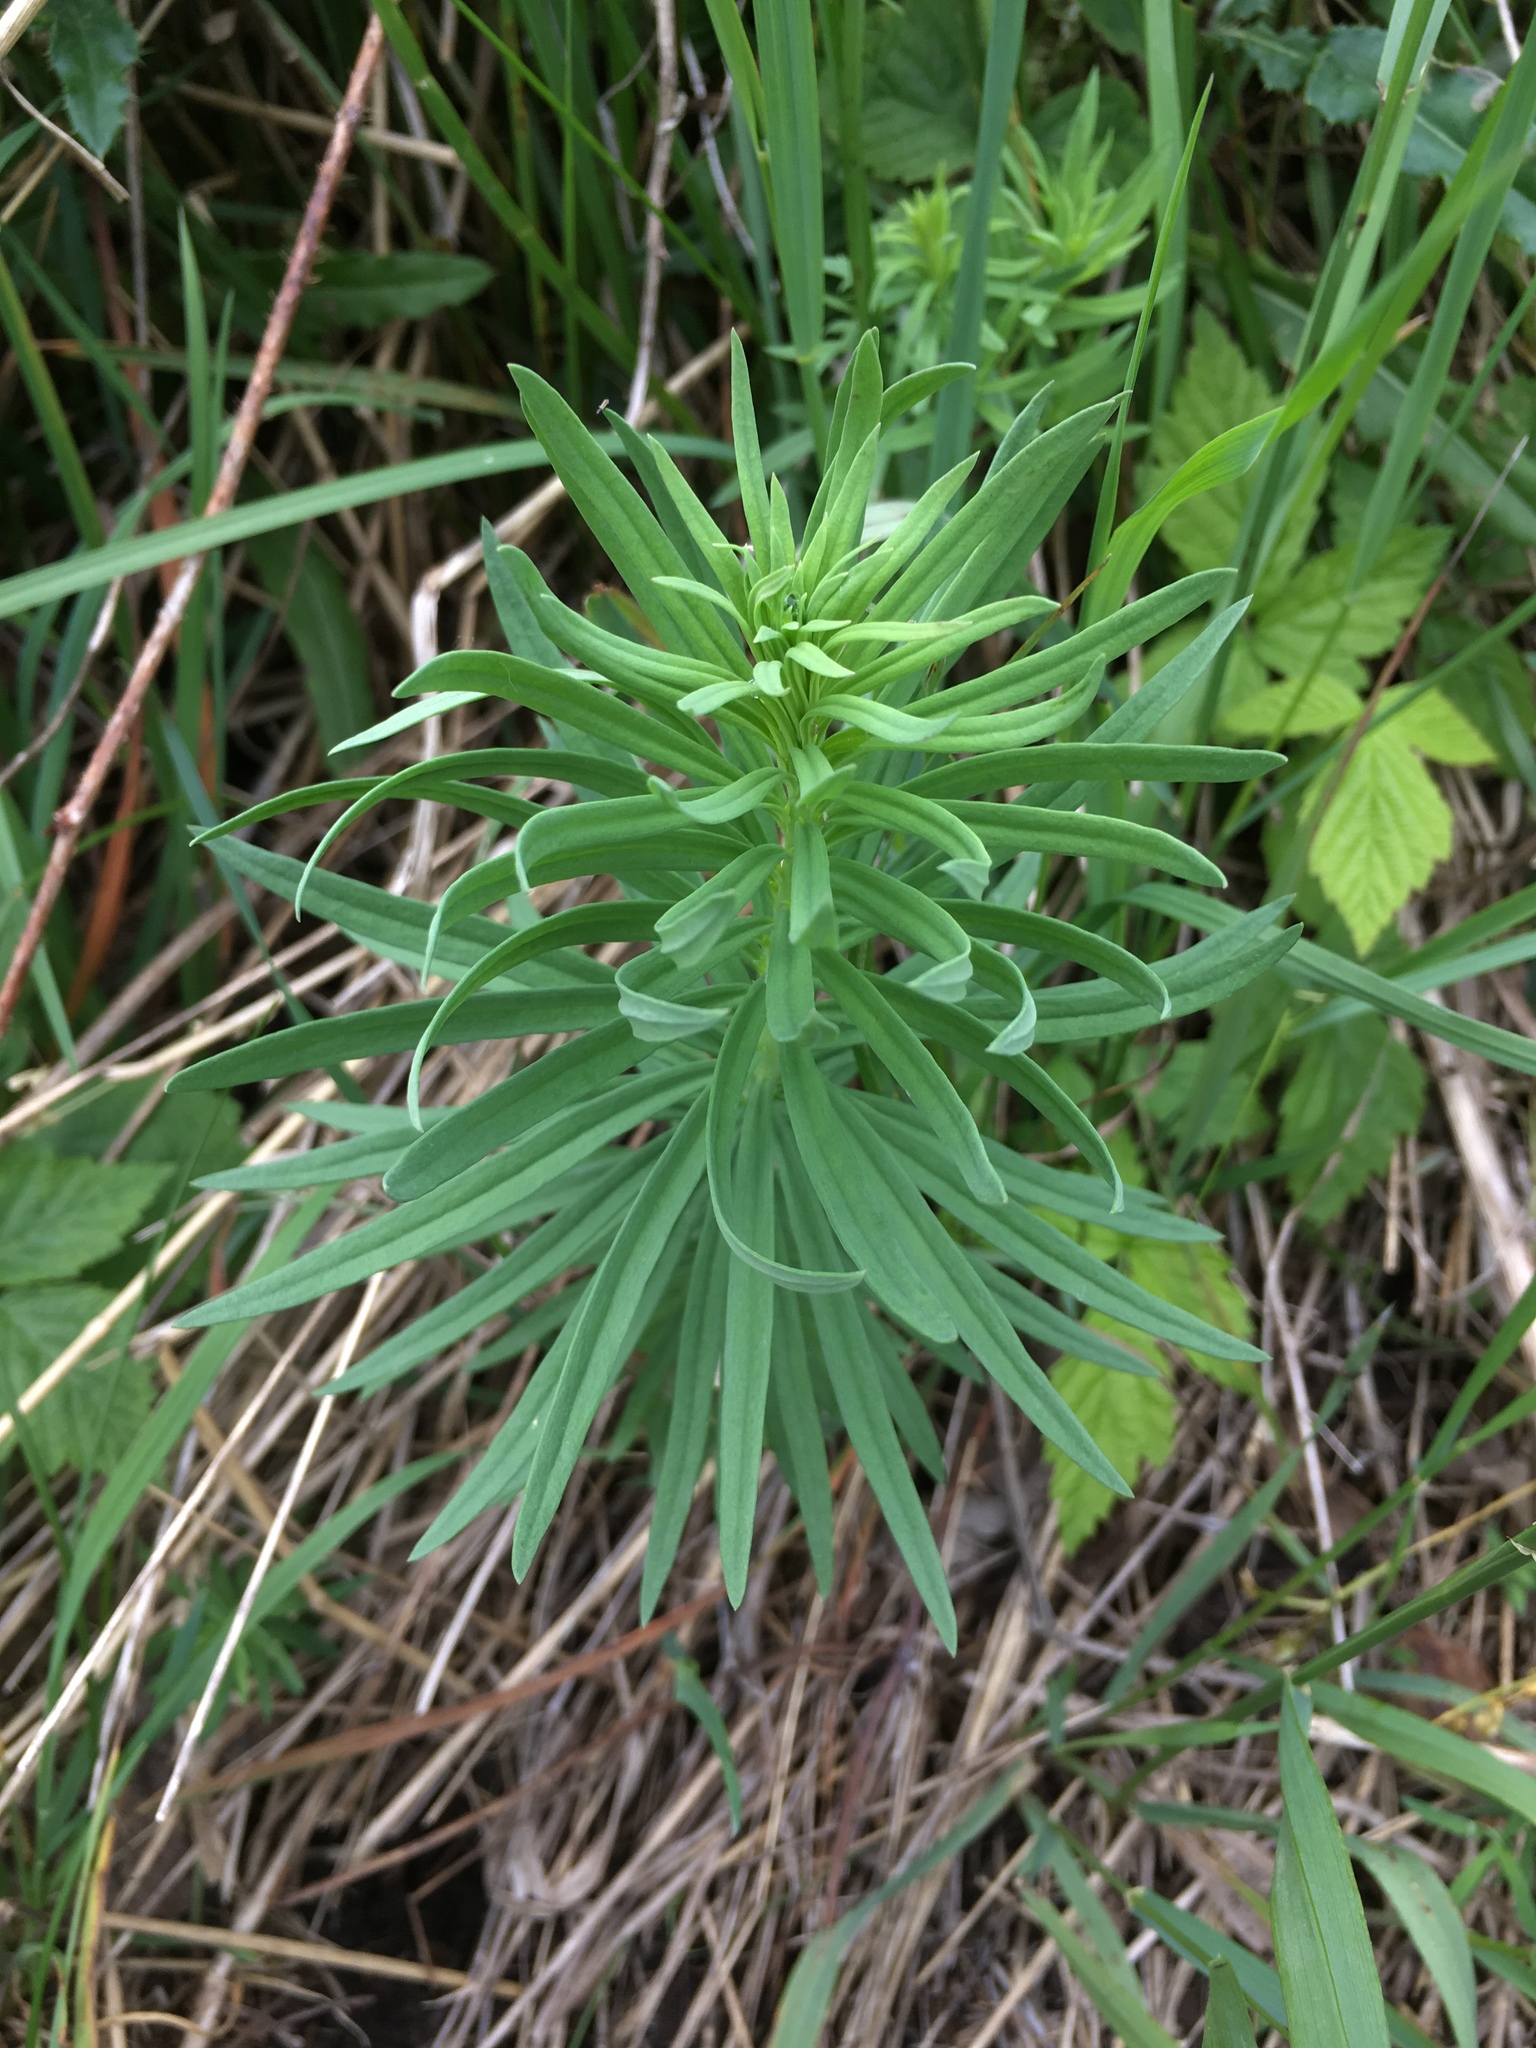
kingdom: Plantae
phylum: Tracheophyta
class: Magnoliopsida
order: Lamiales
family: Plantaginaceae
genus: Linaria
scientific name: Linaria vulgaris
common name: Butter and eggs
